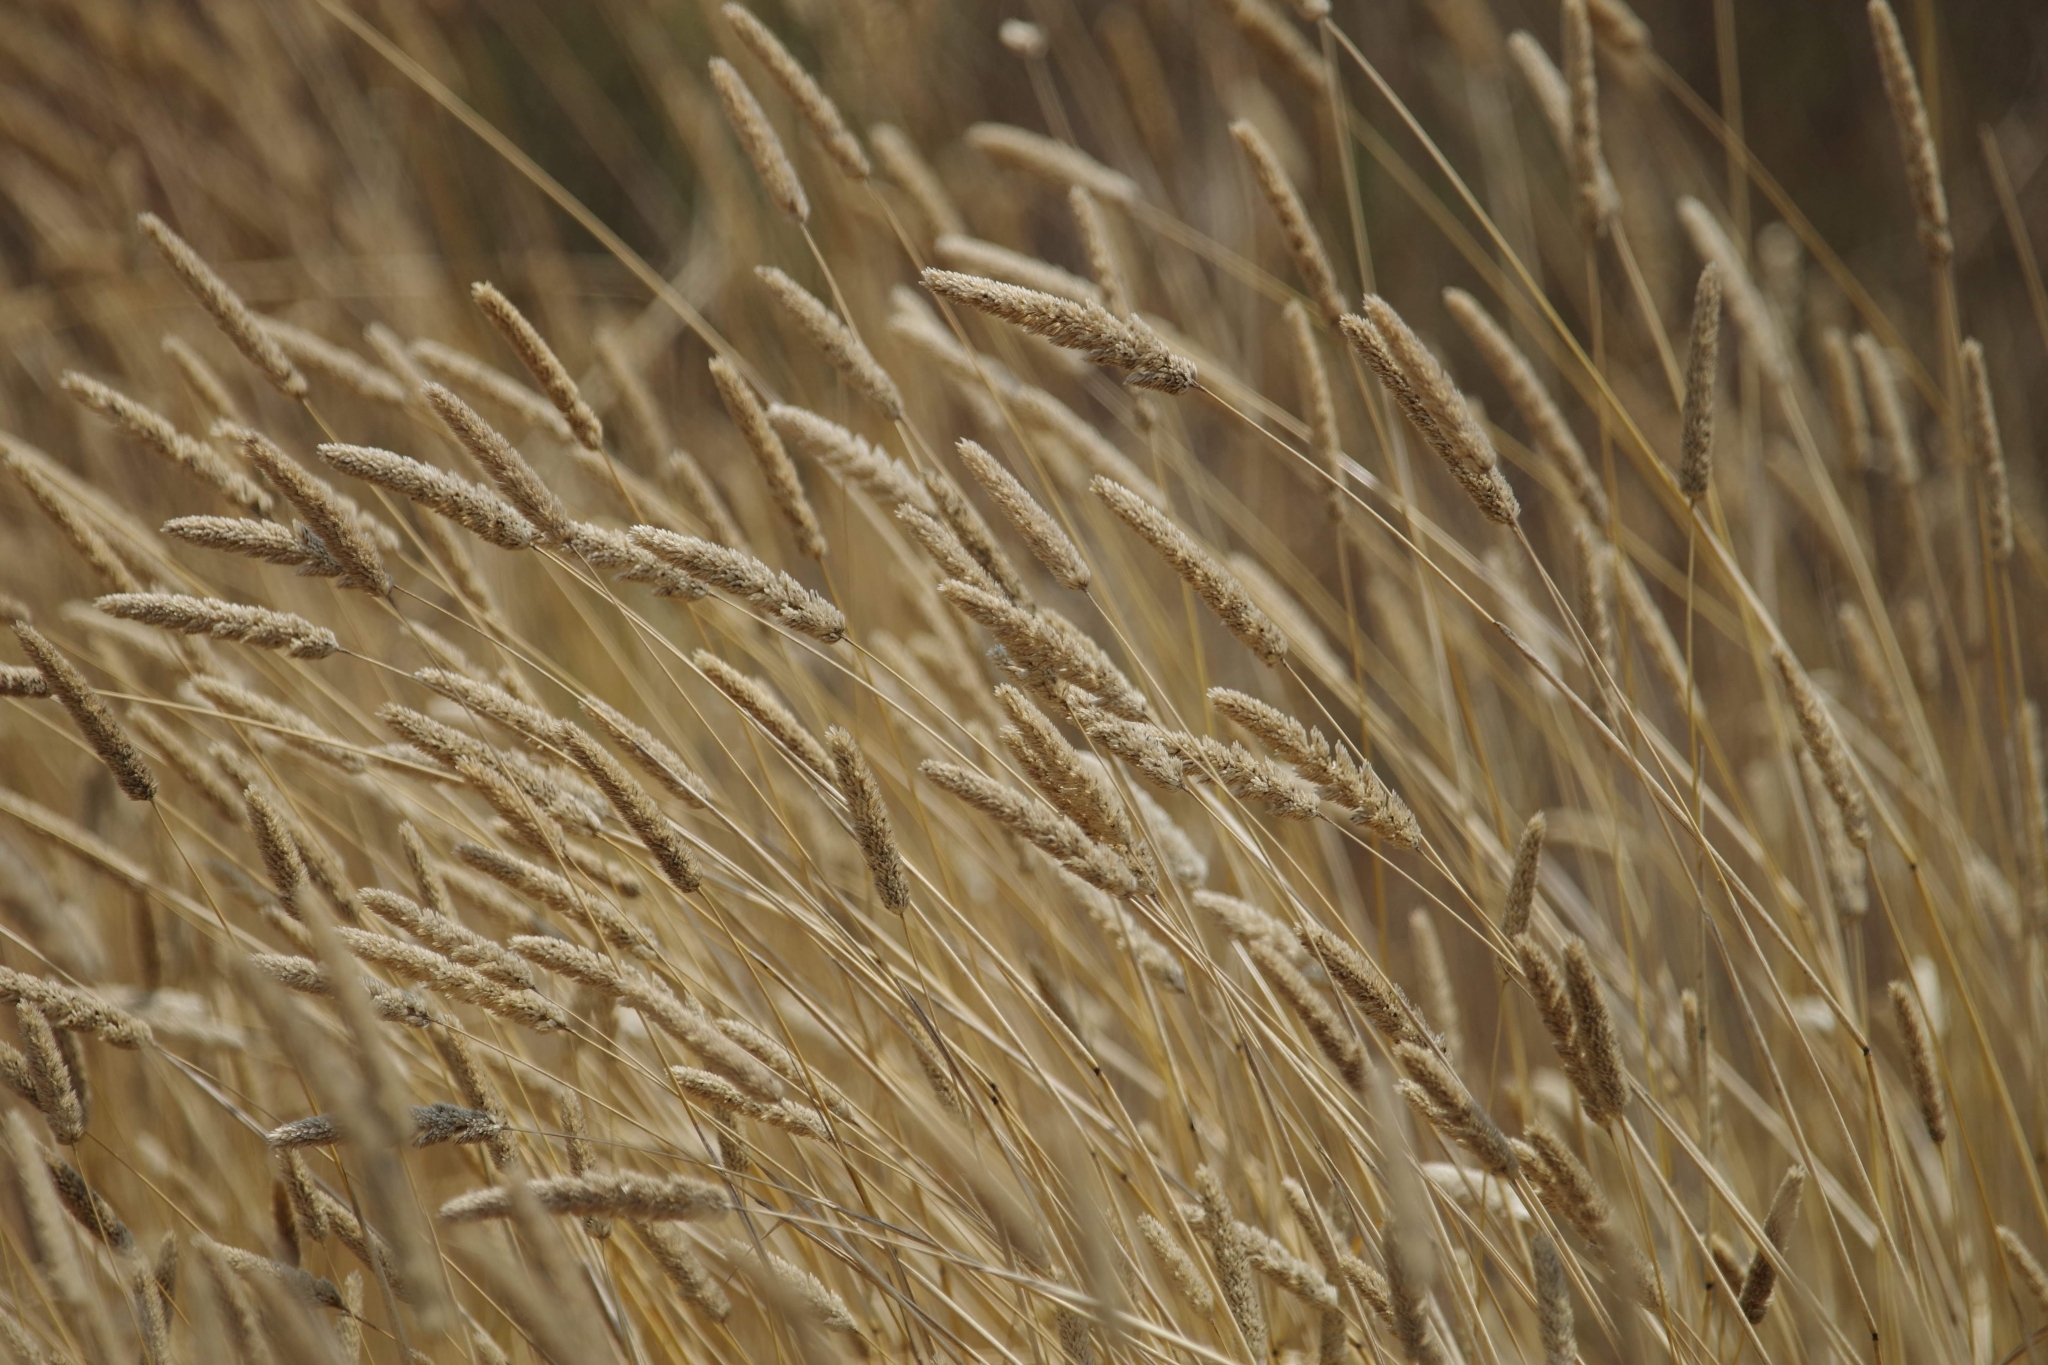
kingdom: Plantae
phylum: Tracheophyta
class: Liliopsida
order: Poales
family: Poaceae
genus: Phalaris
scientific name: Phalaris aquatica
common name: Bulbous canary-grass
